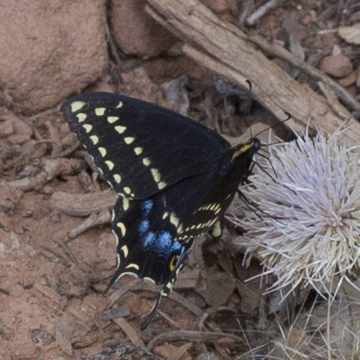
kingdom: Animalia
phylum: Arthropoda
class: Insecta
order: Lepidoptera
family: Papilionidae
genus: Papilio
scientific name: Papilio indra
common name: Cliff swallowtail
